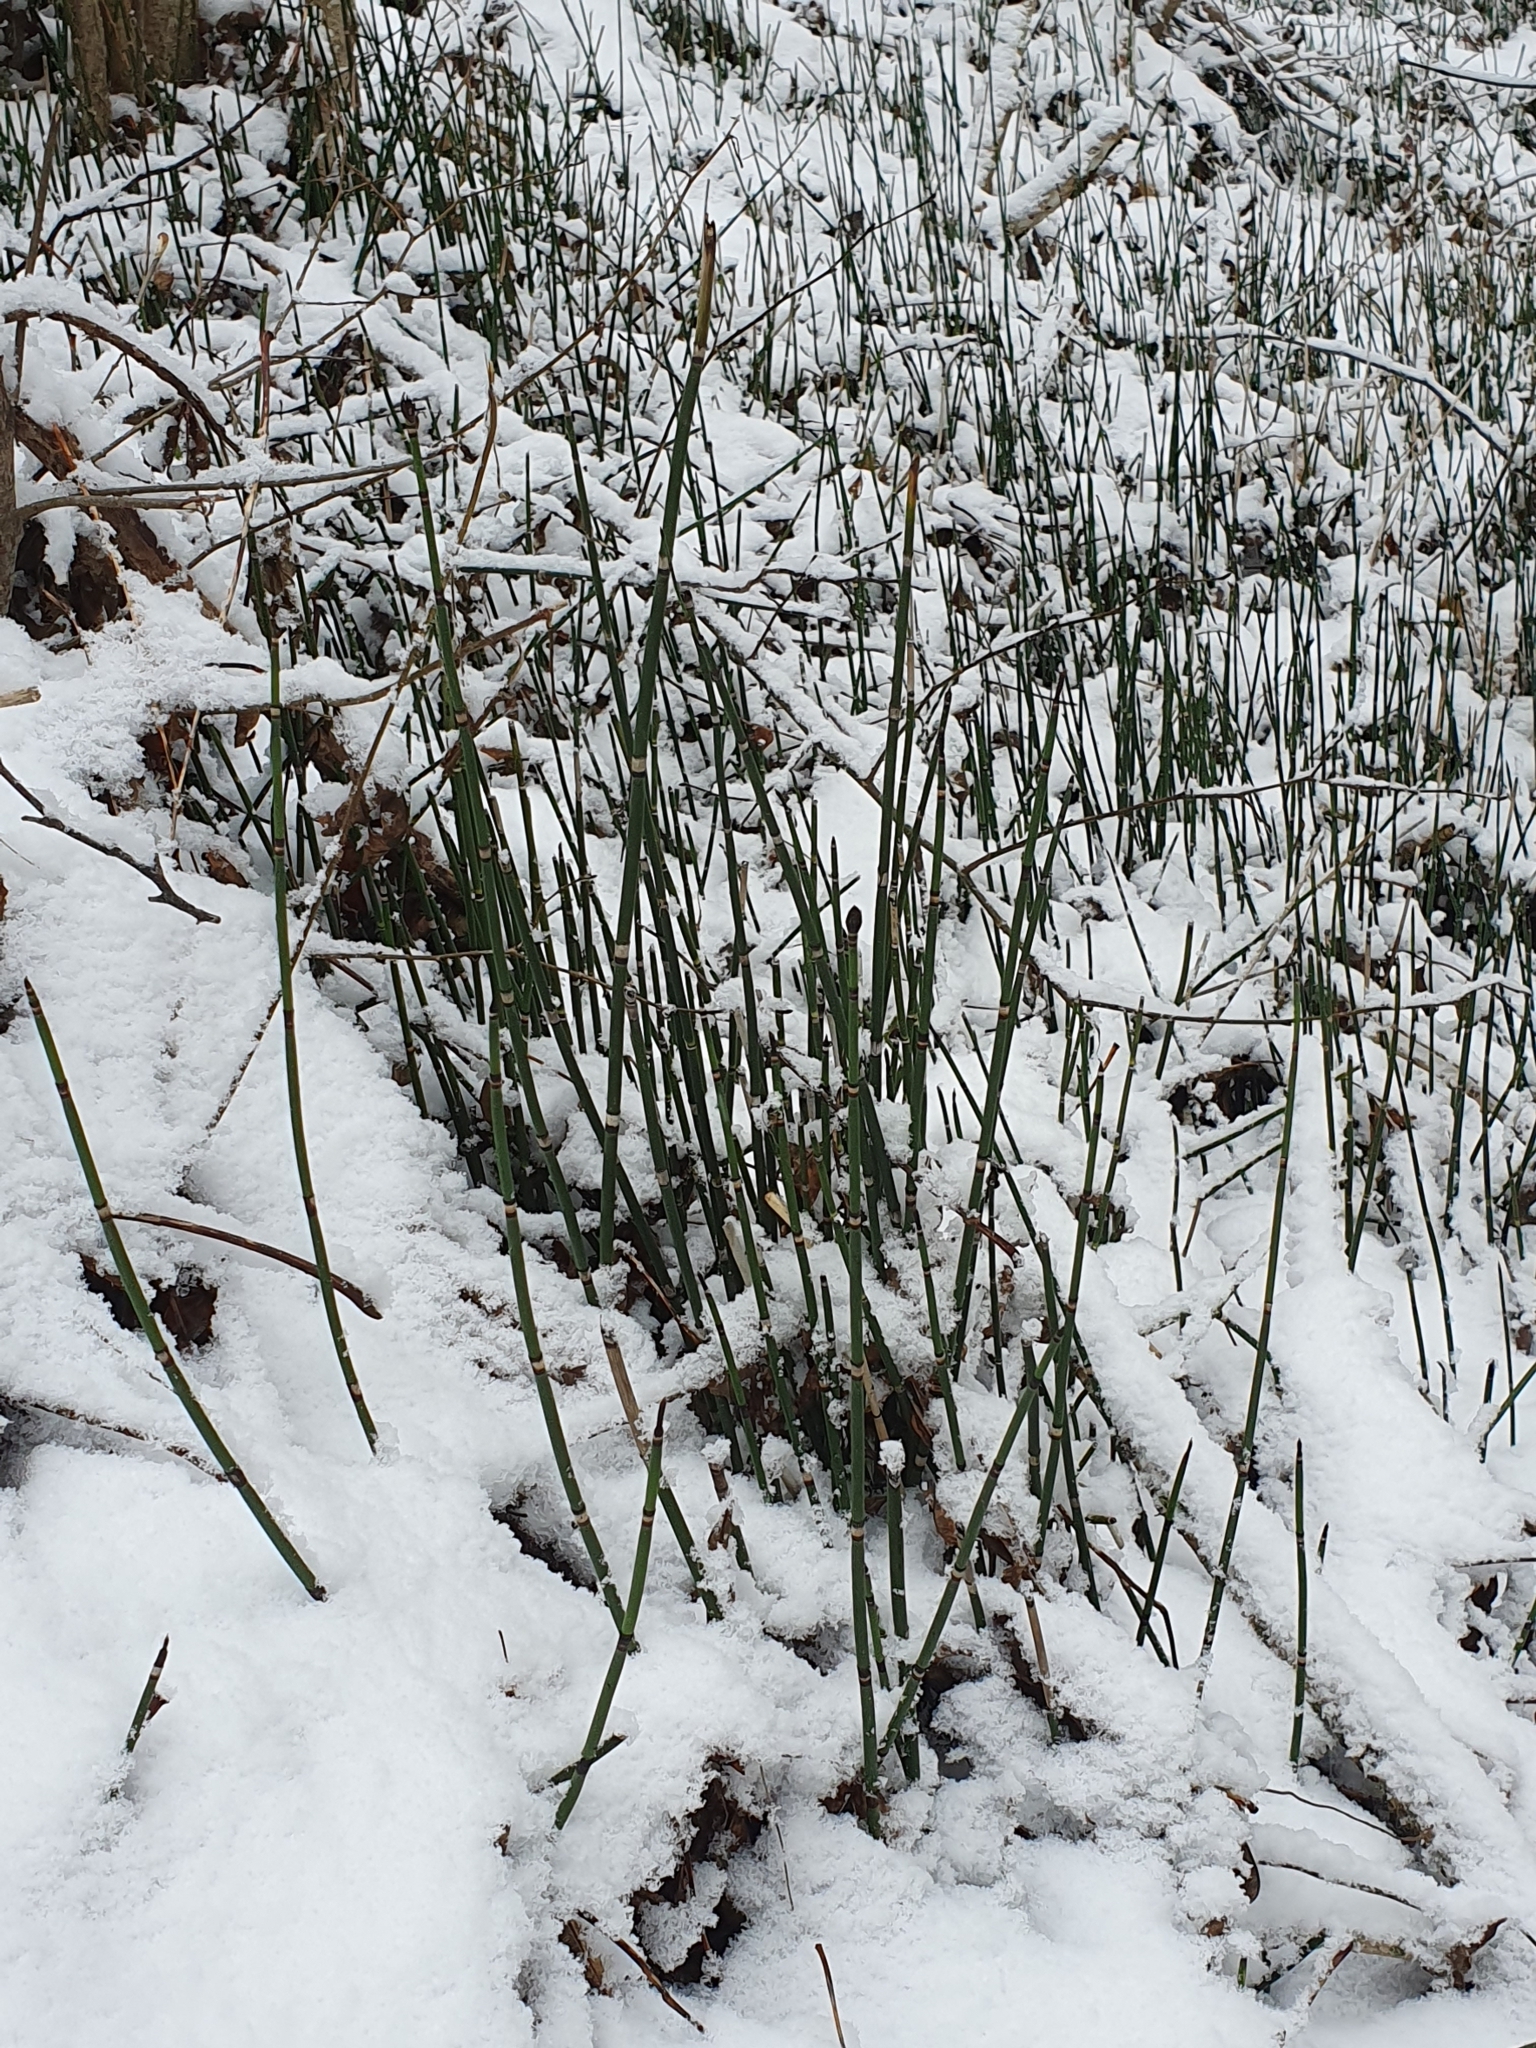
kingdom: Plantae
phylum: Tracheophyta
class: Polypodiopsida
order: Equisetales
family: Equisetaceae
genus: Equisetum
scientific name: Equisetum hyemale
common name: Rough horsetail
